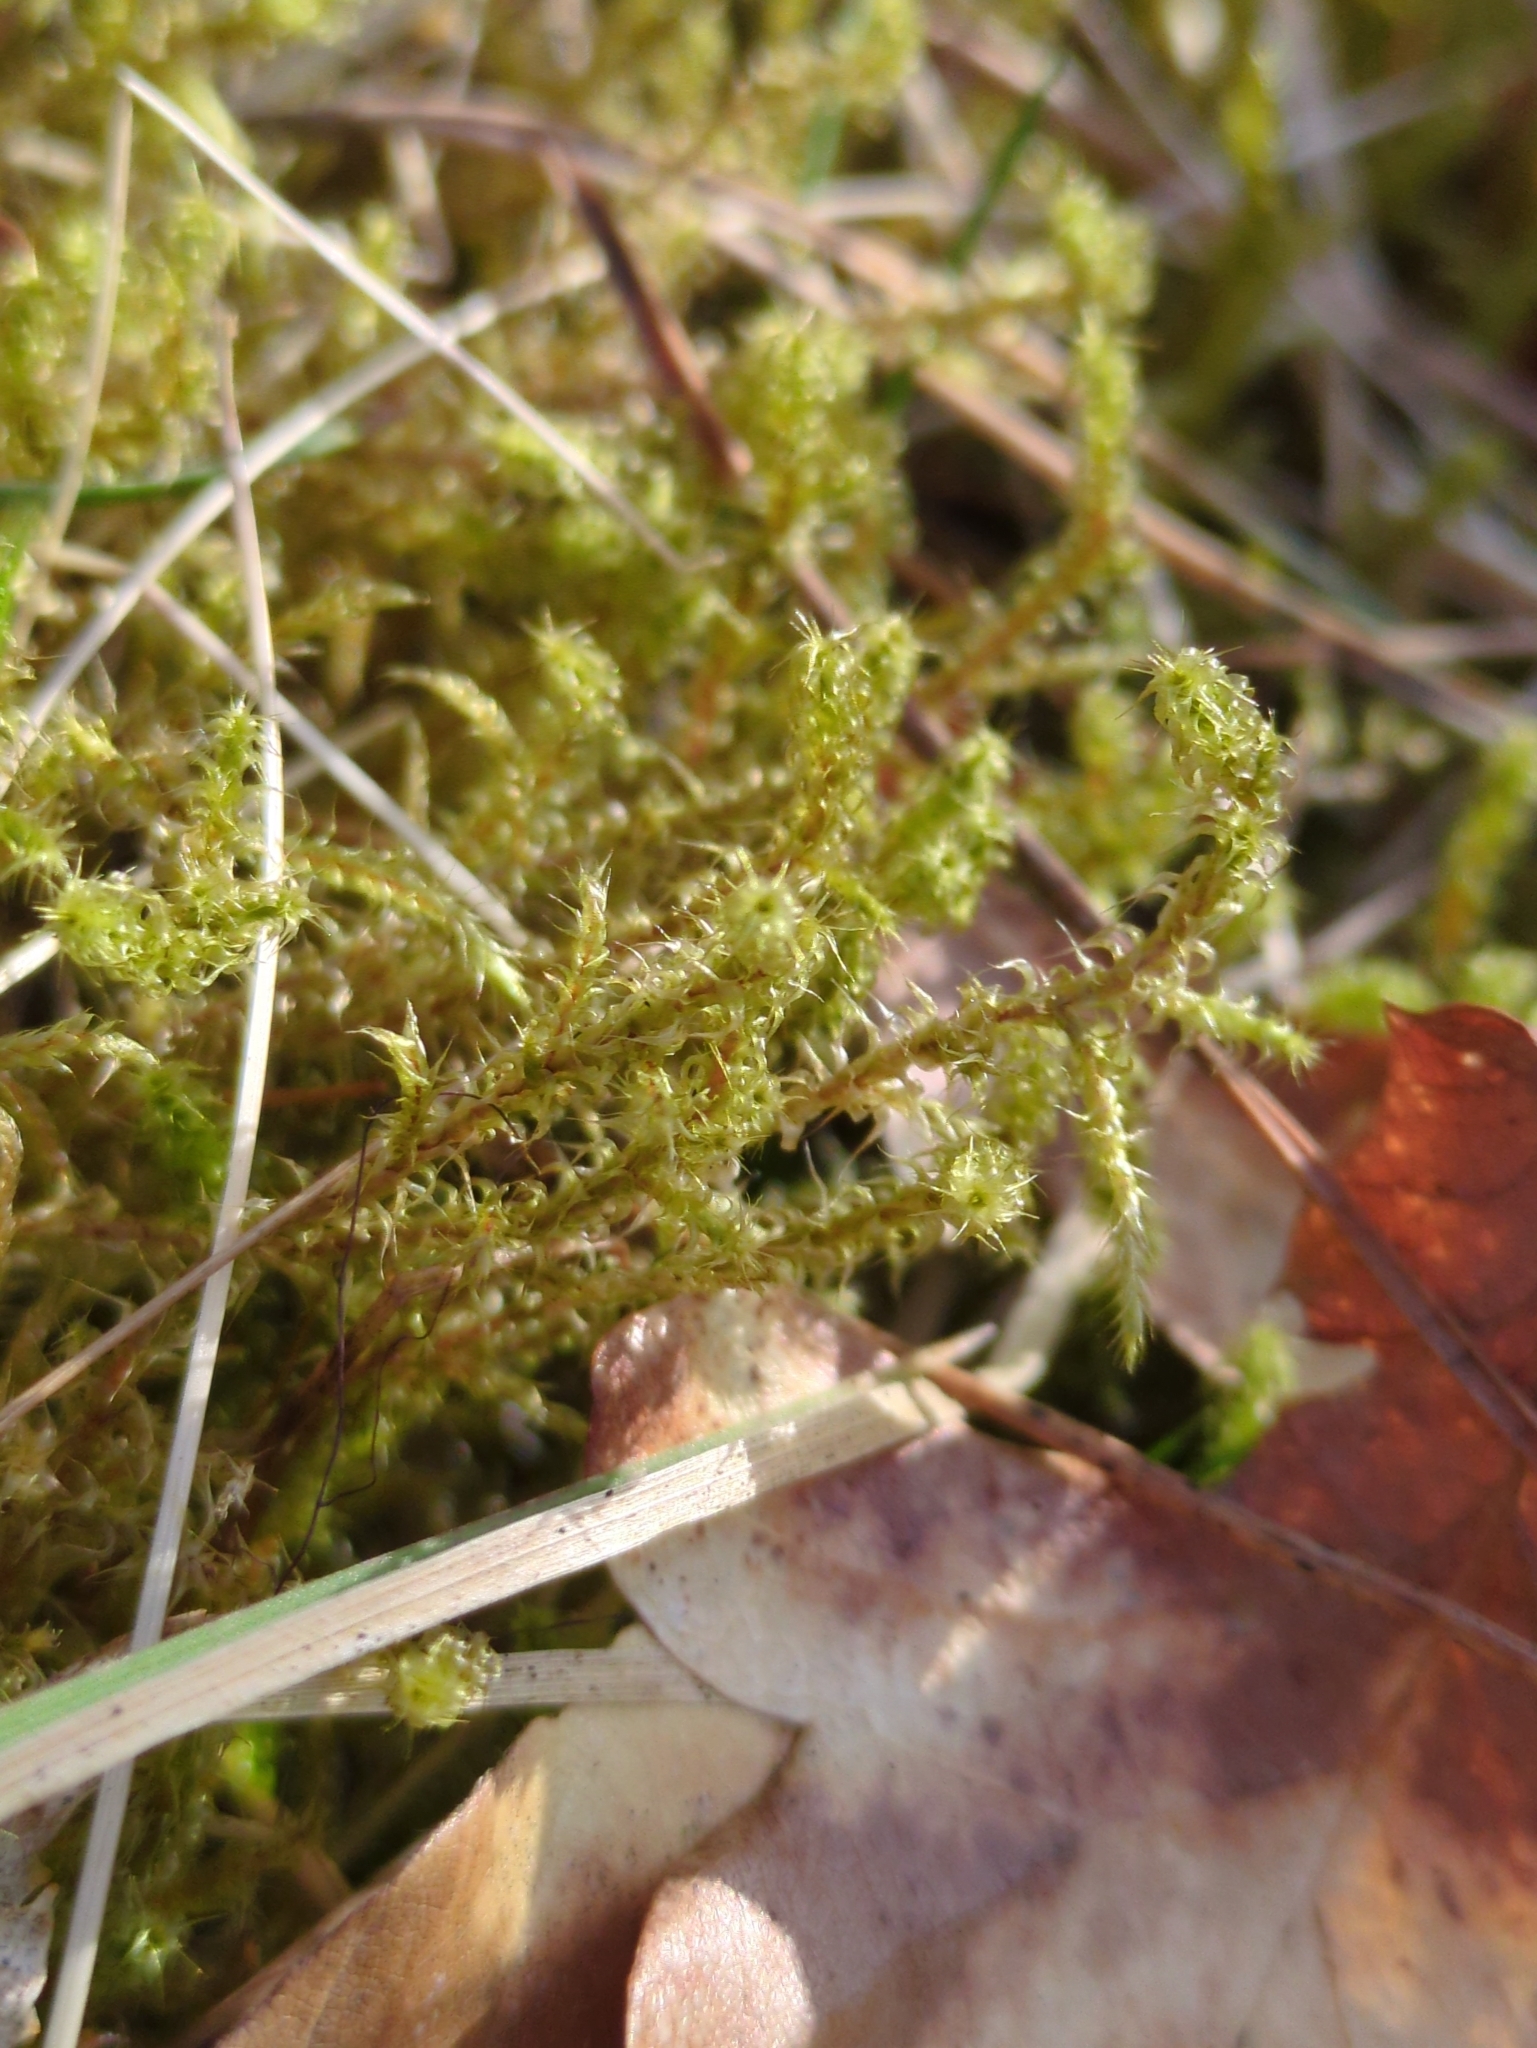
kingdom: Plantae
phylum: Bryophyta
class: Bryopsida
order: Hypnales
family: Hylocomiaceae
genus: Rhytidiadelphus
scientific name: Rhytidiadelphus squarrosus
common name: Springy turf-moss
